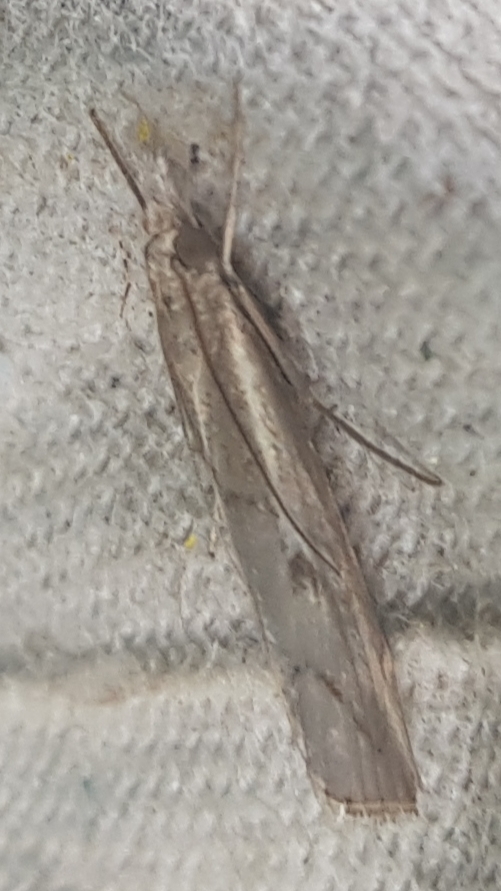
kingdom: Animalia
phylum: Arthropoda
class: Insecta
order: Lepidoptera
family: Crambidae
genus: Agriphila
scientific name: Agriphila geniculea
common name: Elbow-stripe grass-veneer
